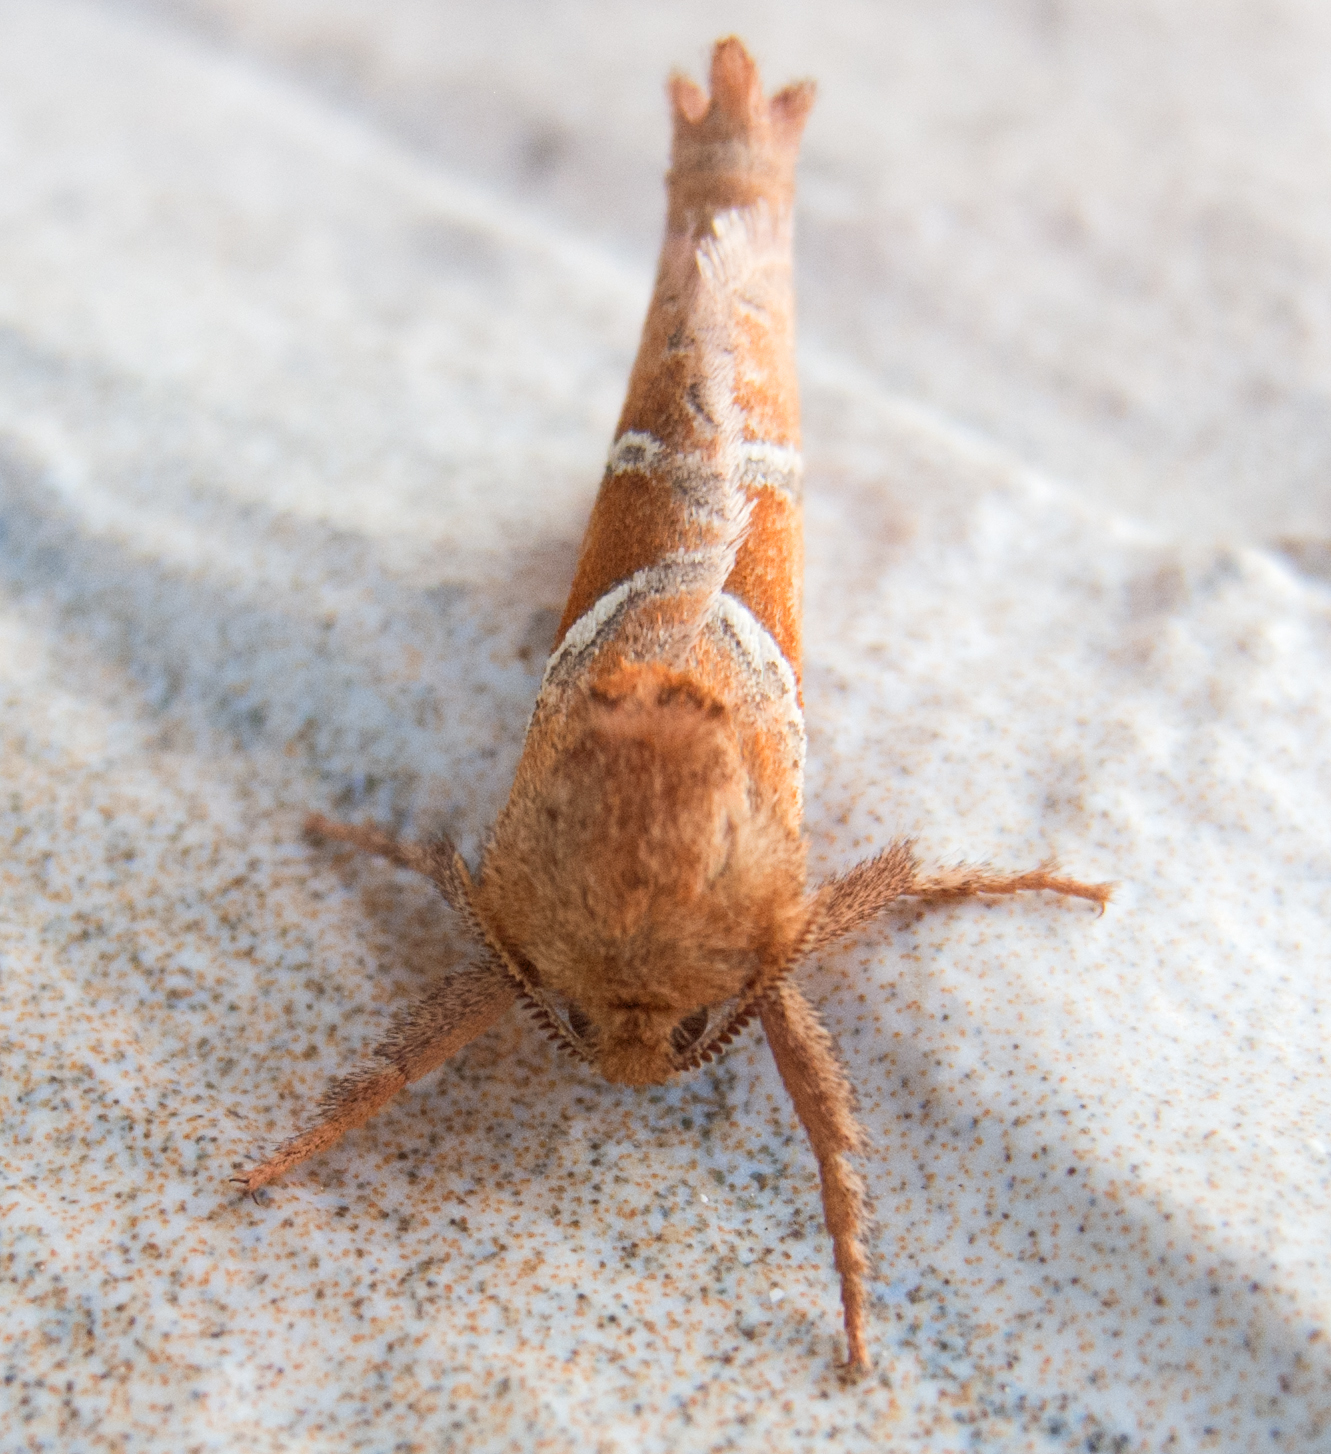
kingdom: Animalia
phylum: Arthropoda
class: Insecta
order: Lepidoptera
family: Hepialidae
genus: Triodia
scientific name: Triodia sylvina
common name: Orange swift
